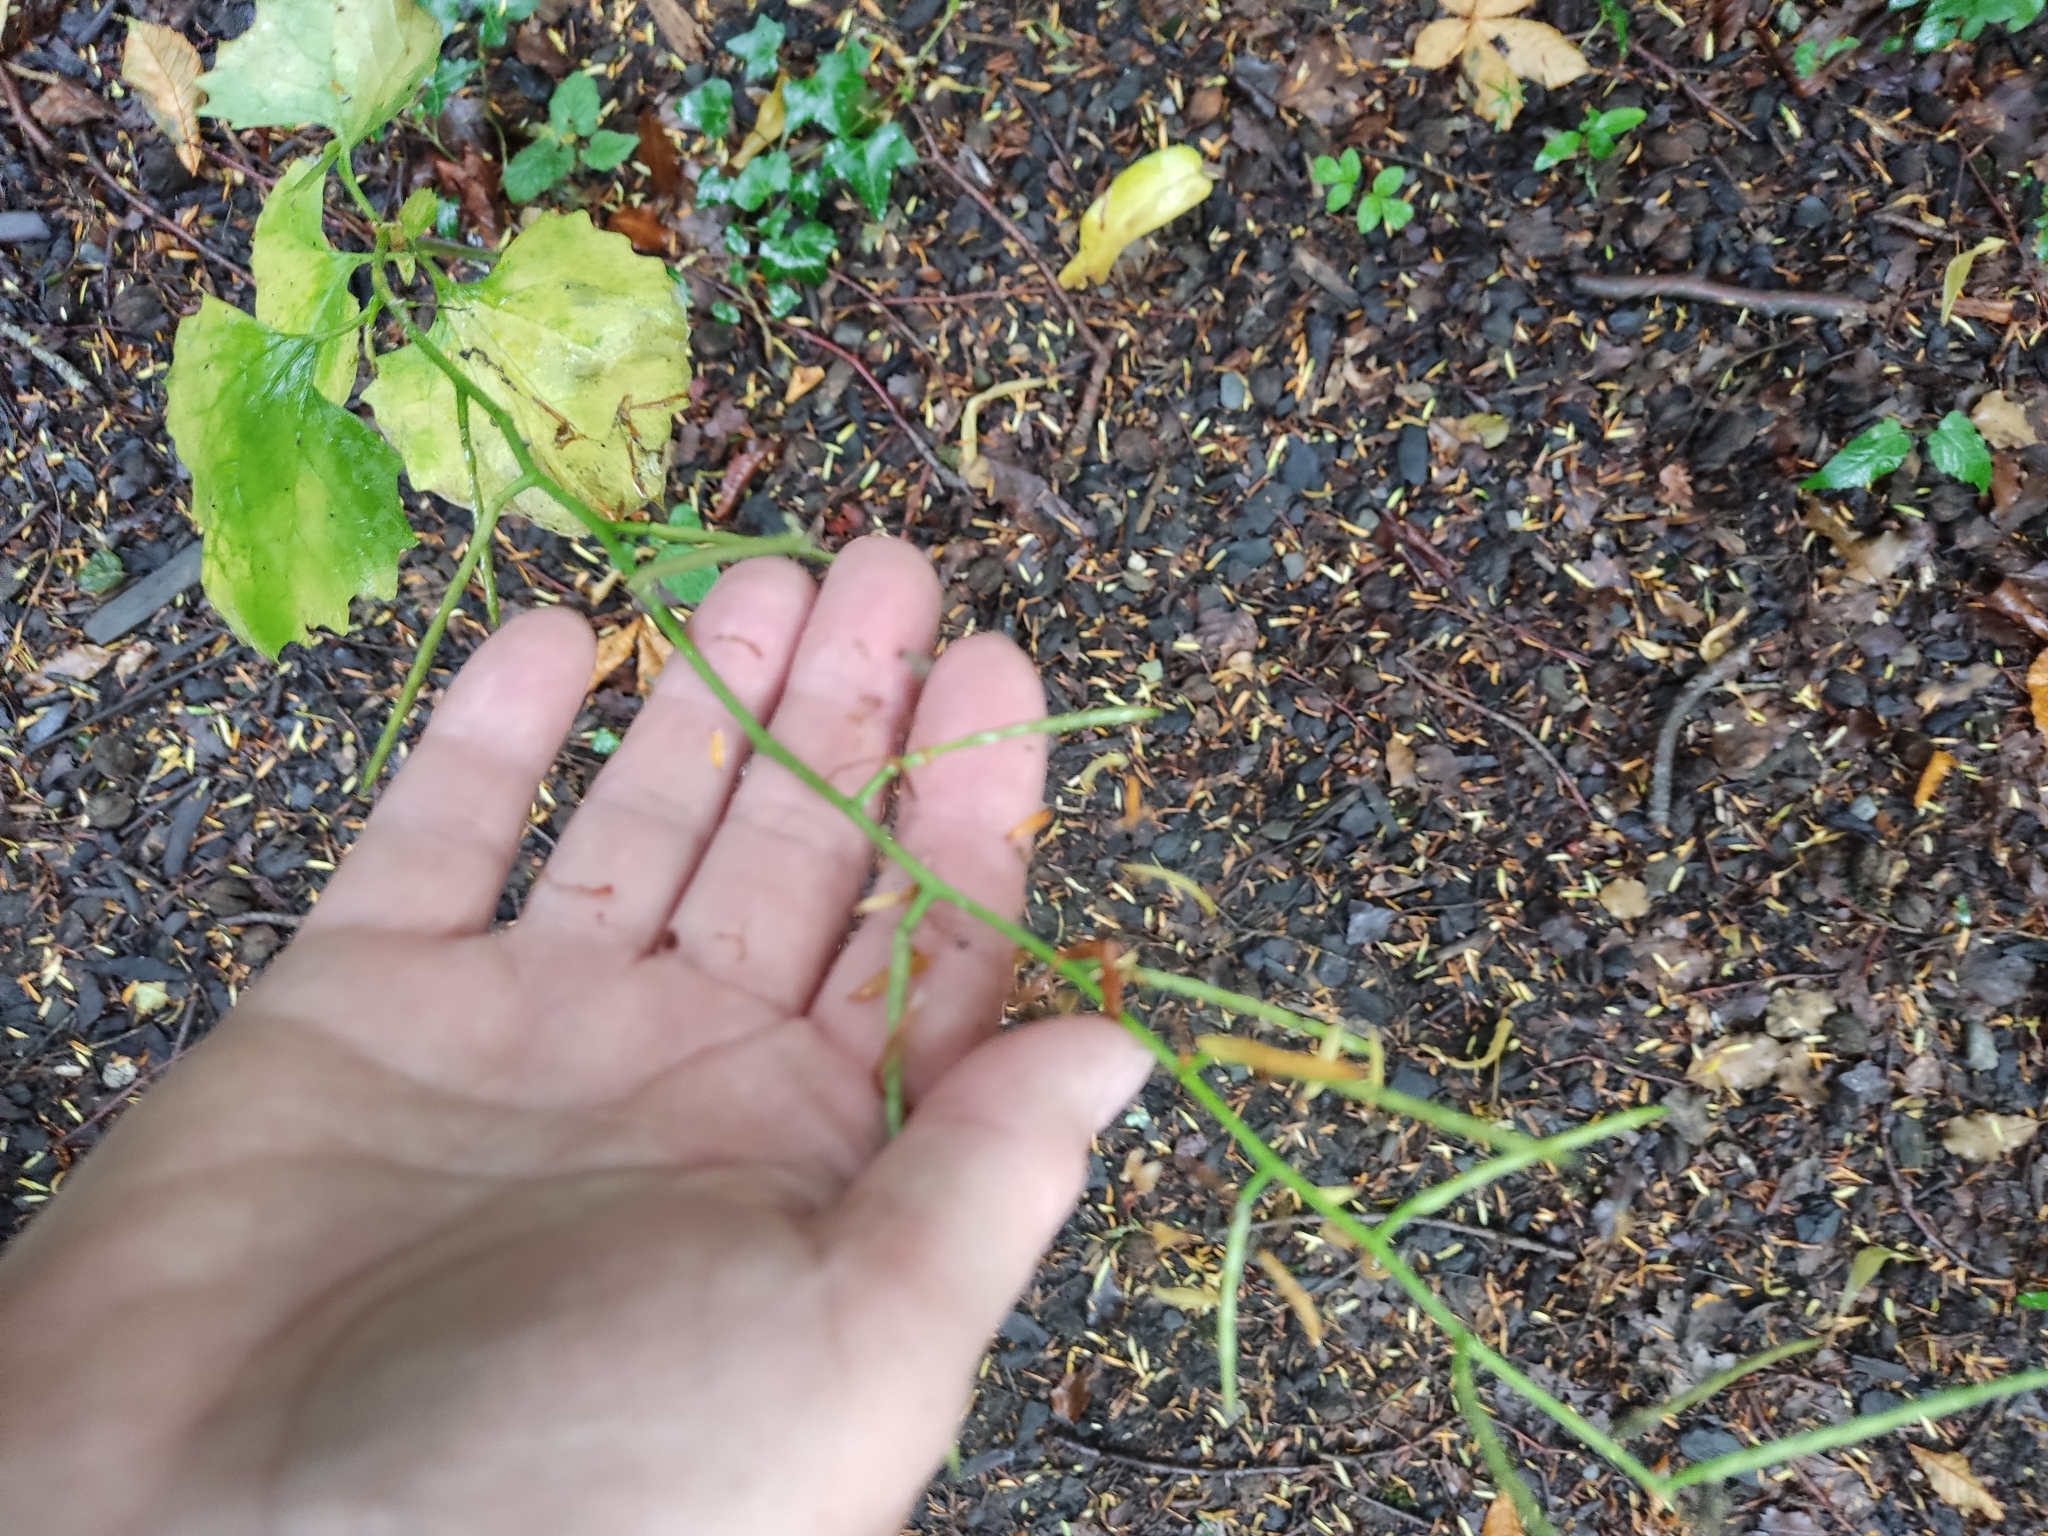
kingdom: Plantae
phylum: Tracheophyta
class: Magnoliopsida
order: Brassicales
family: Brassicaceae
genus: Alliaria
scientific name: Alliaria petiolata
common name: Garlic mustard
